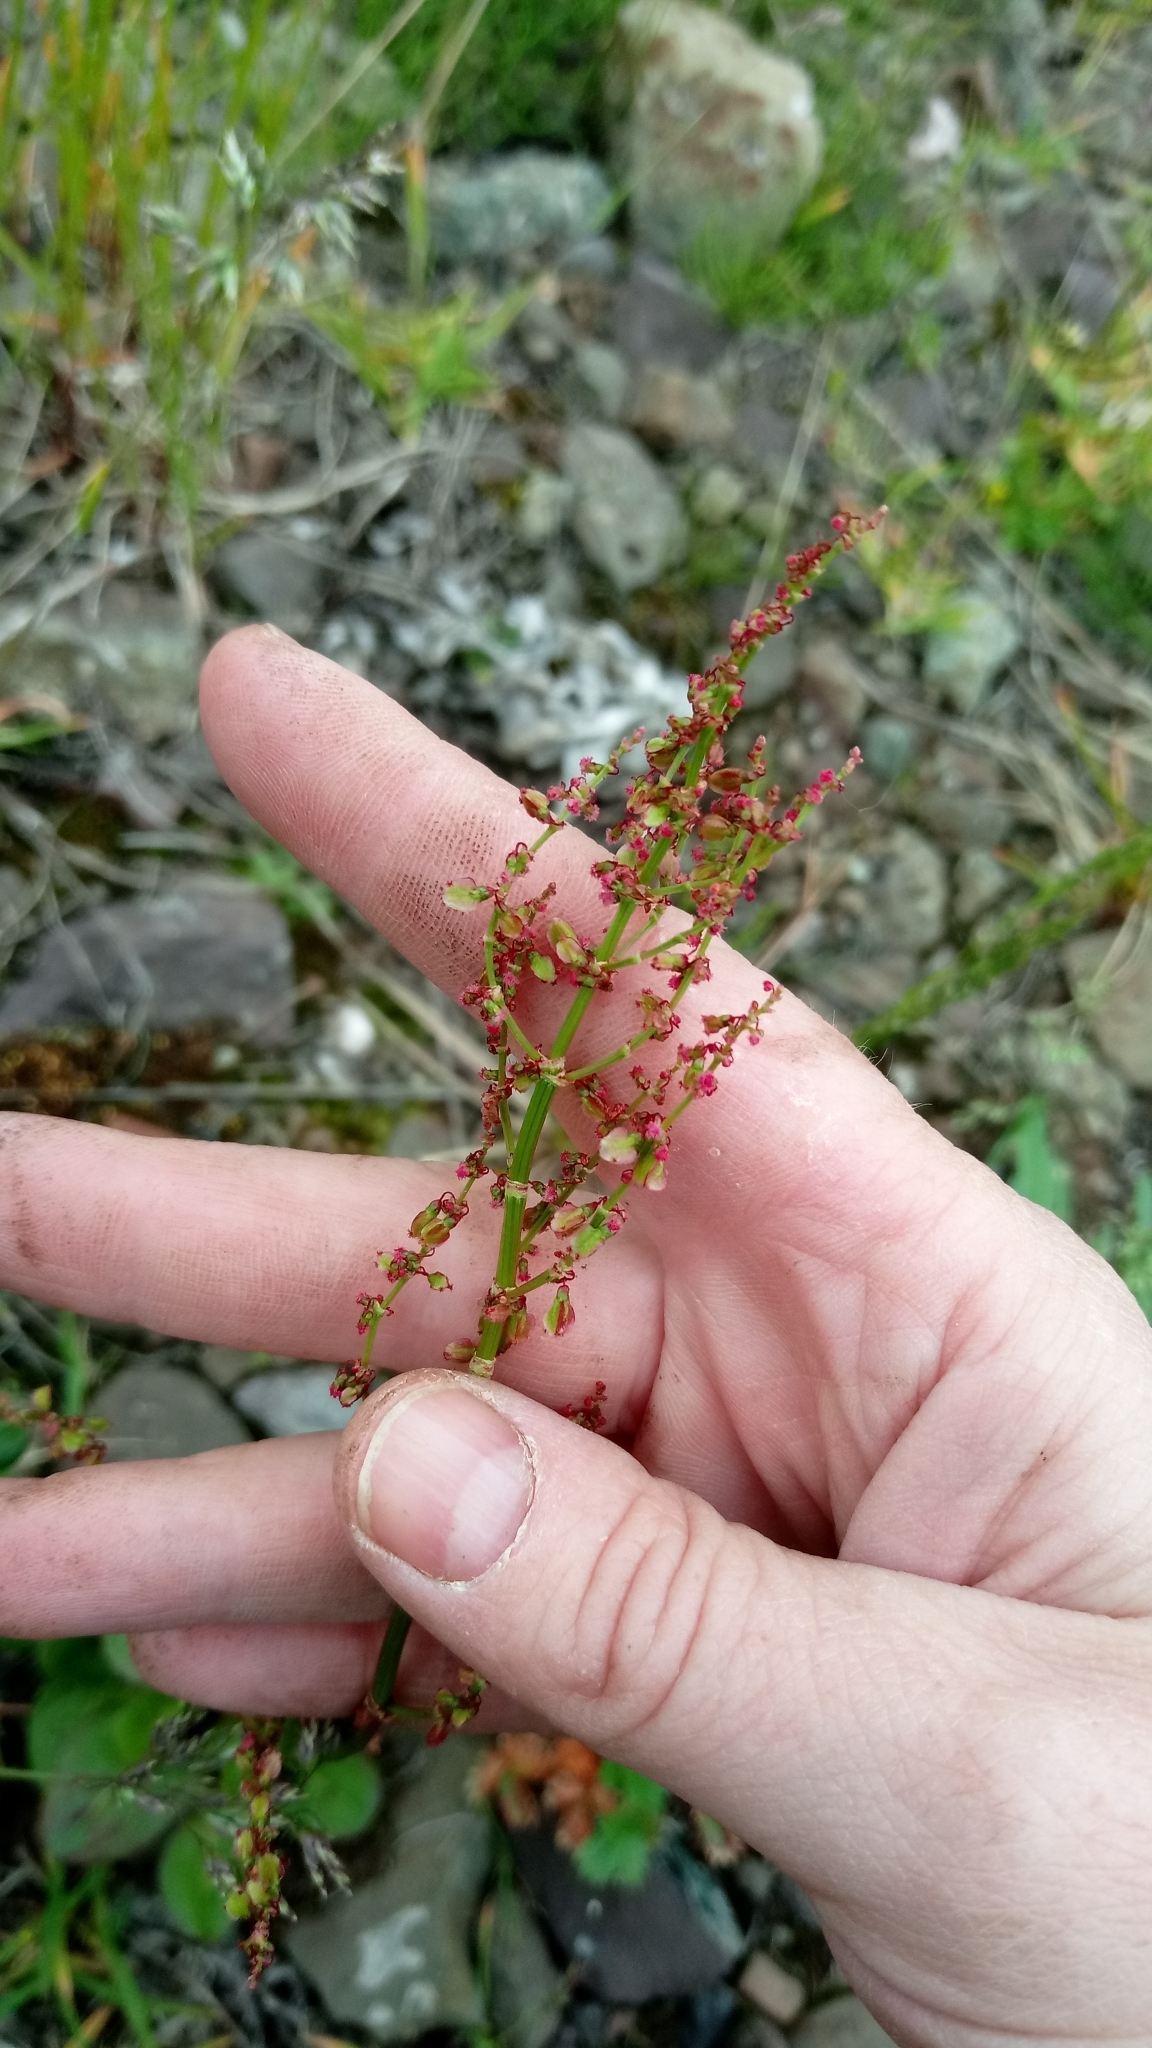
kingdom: Plantae
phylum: Tracheophyta
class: Magnoliopsida
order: Caryophyllales
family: Polygonaceae
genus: Rumex
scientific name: Rumex pseudoxyria
